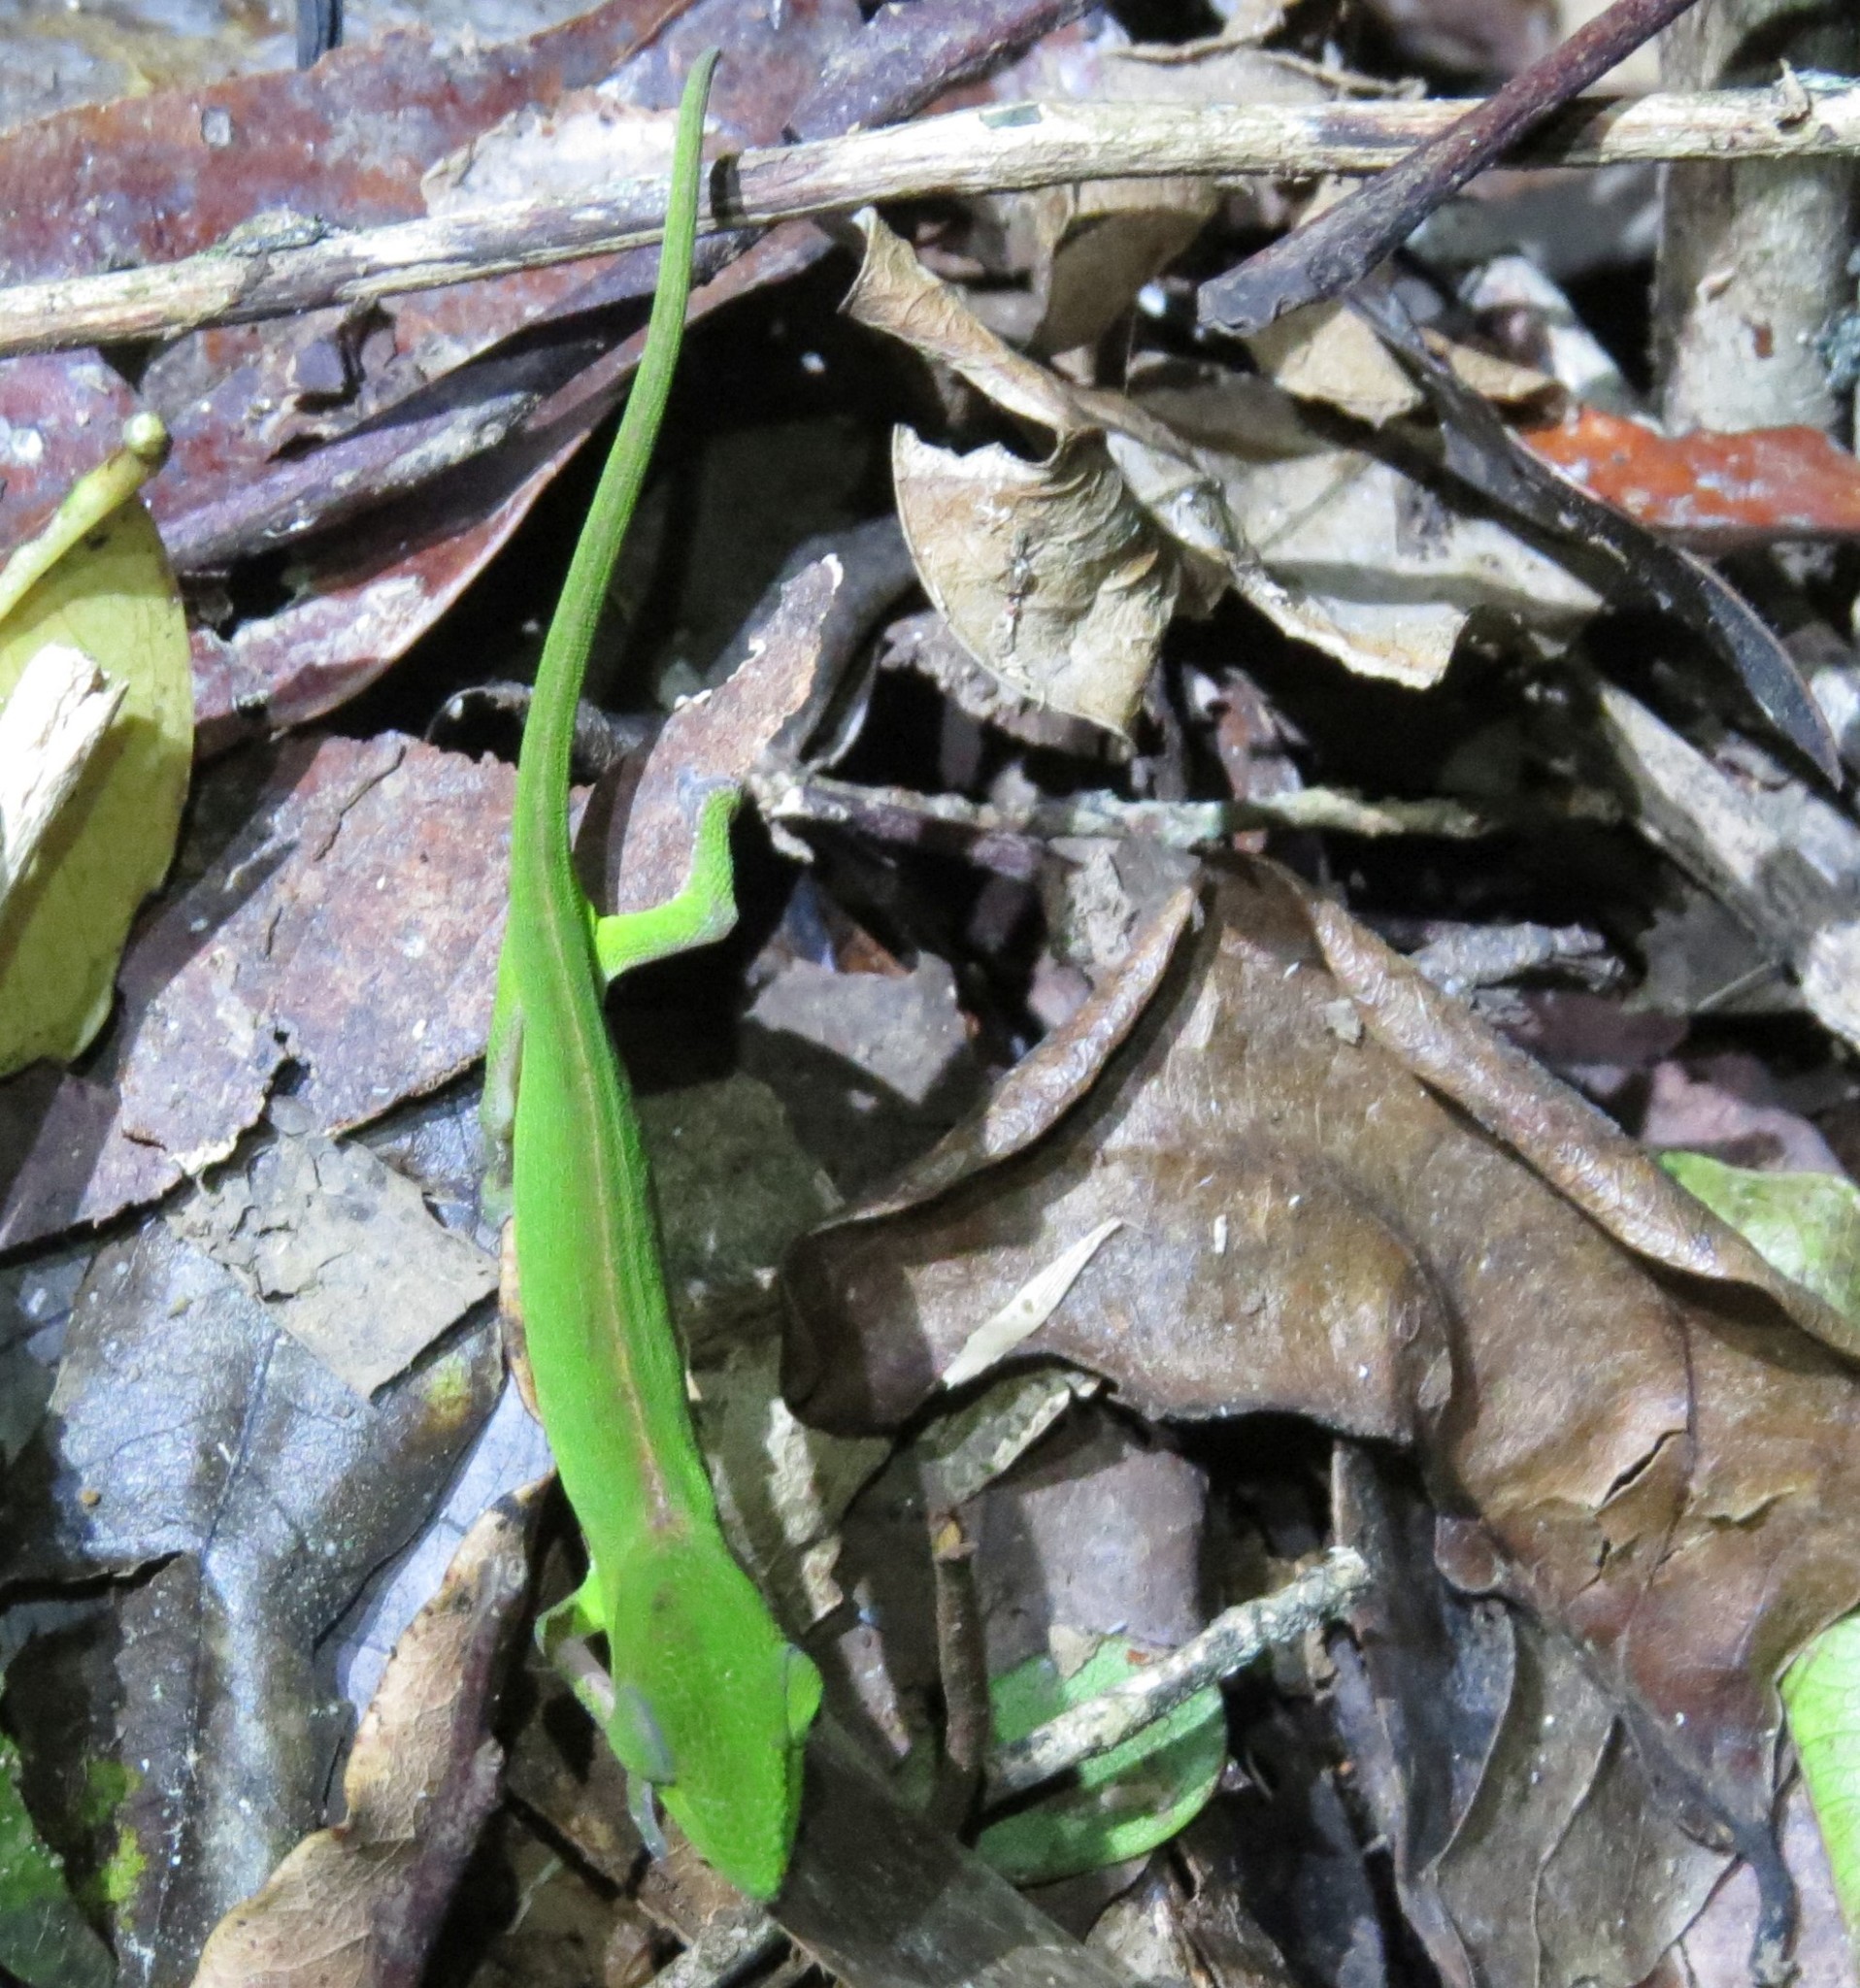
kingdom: Animalia
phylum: Chordata
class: Squamata
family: Chamaeleonidae
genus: Calumma
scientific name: Calumma gastrotaenia
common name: Short-nosed chameleon
